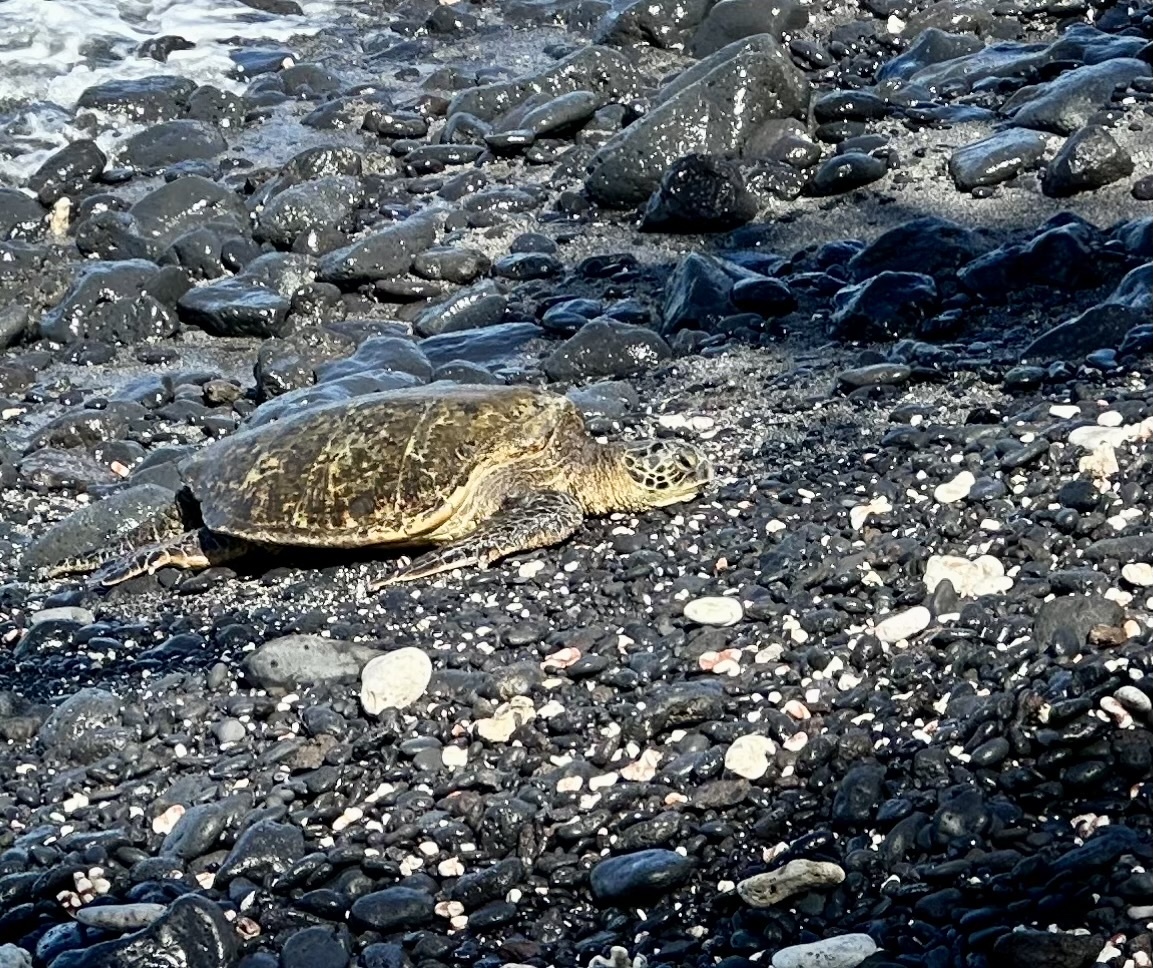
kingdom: Animalia
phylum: Chordata
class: Testudines
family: Cheloniidae
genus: Chelonia
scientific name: Chelonia mydas
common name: Green turtle
